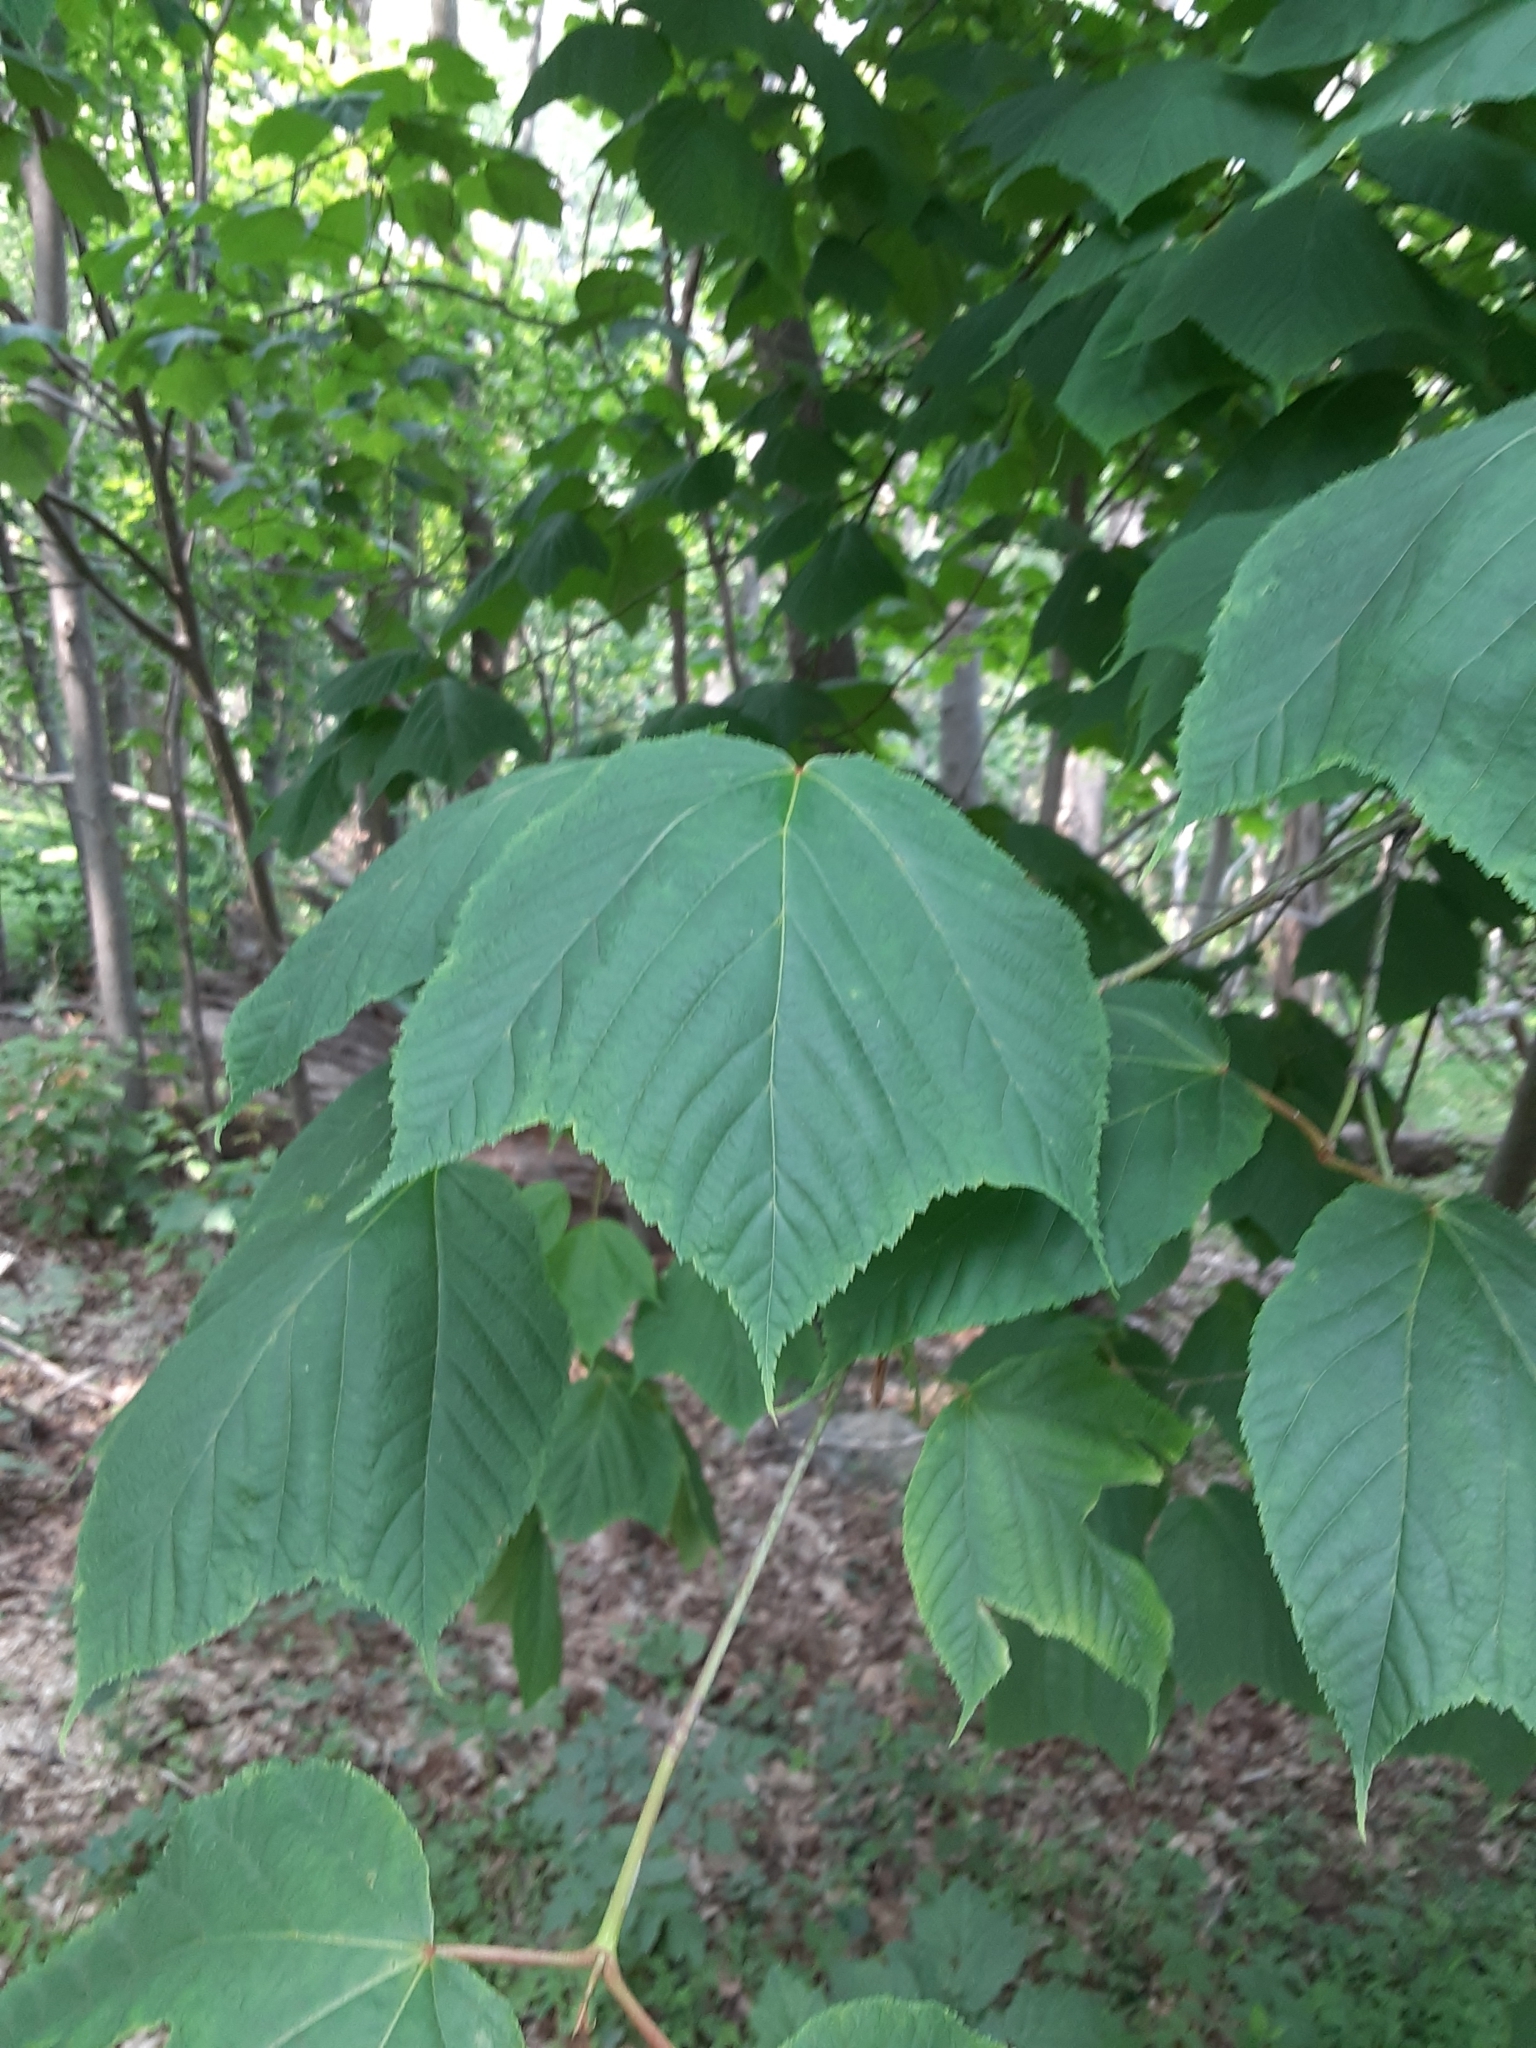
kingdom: Plantae
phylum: Tracheophyta
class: Magnoliopsida
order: Sapindales
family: Sapindaceae
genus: Acer
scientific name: Acer pensylvanicum
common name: Moosewood
